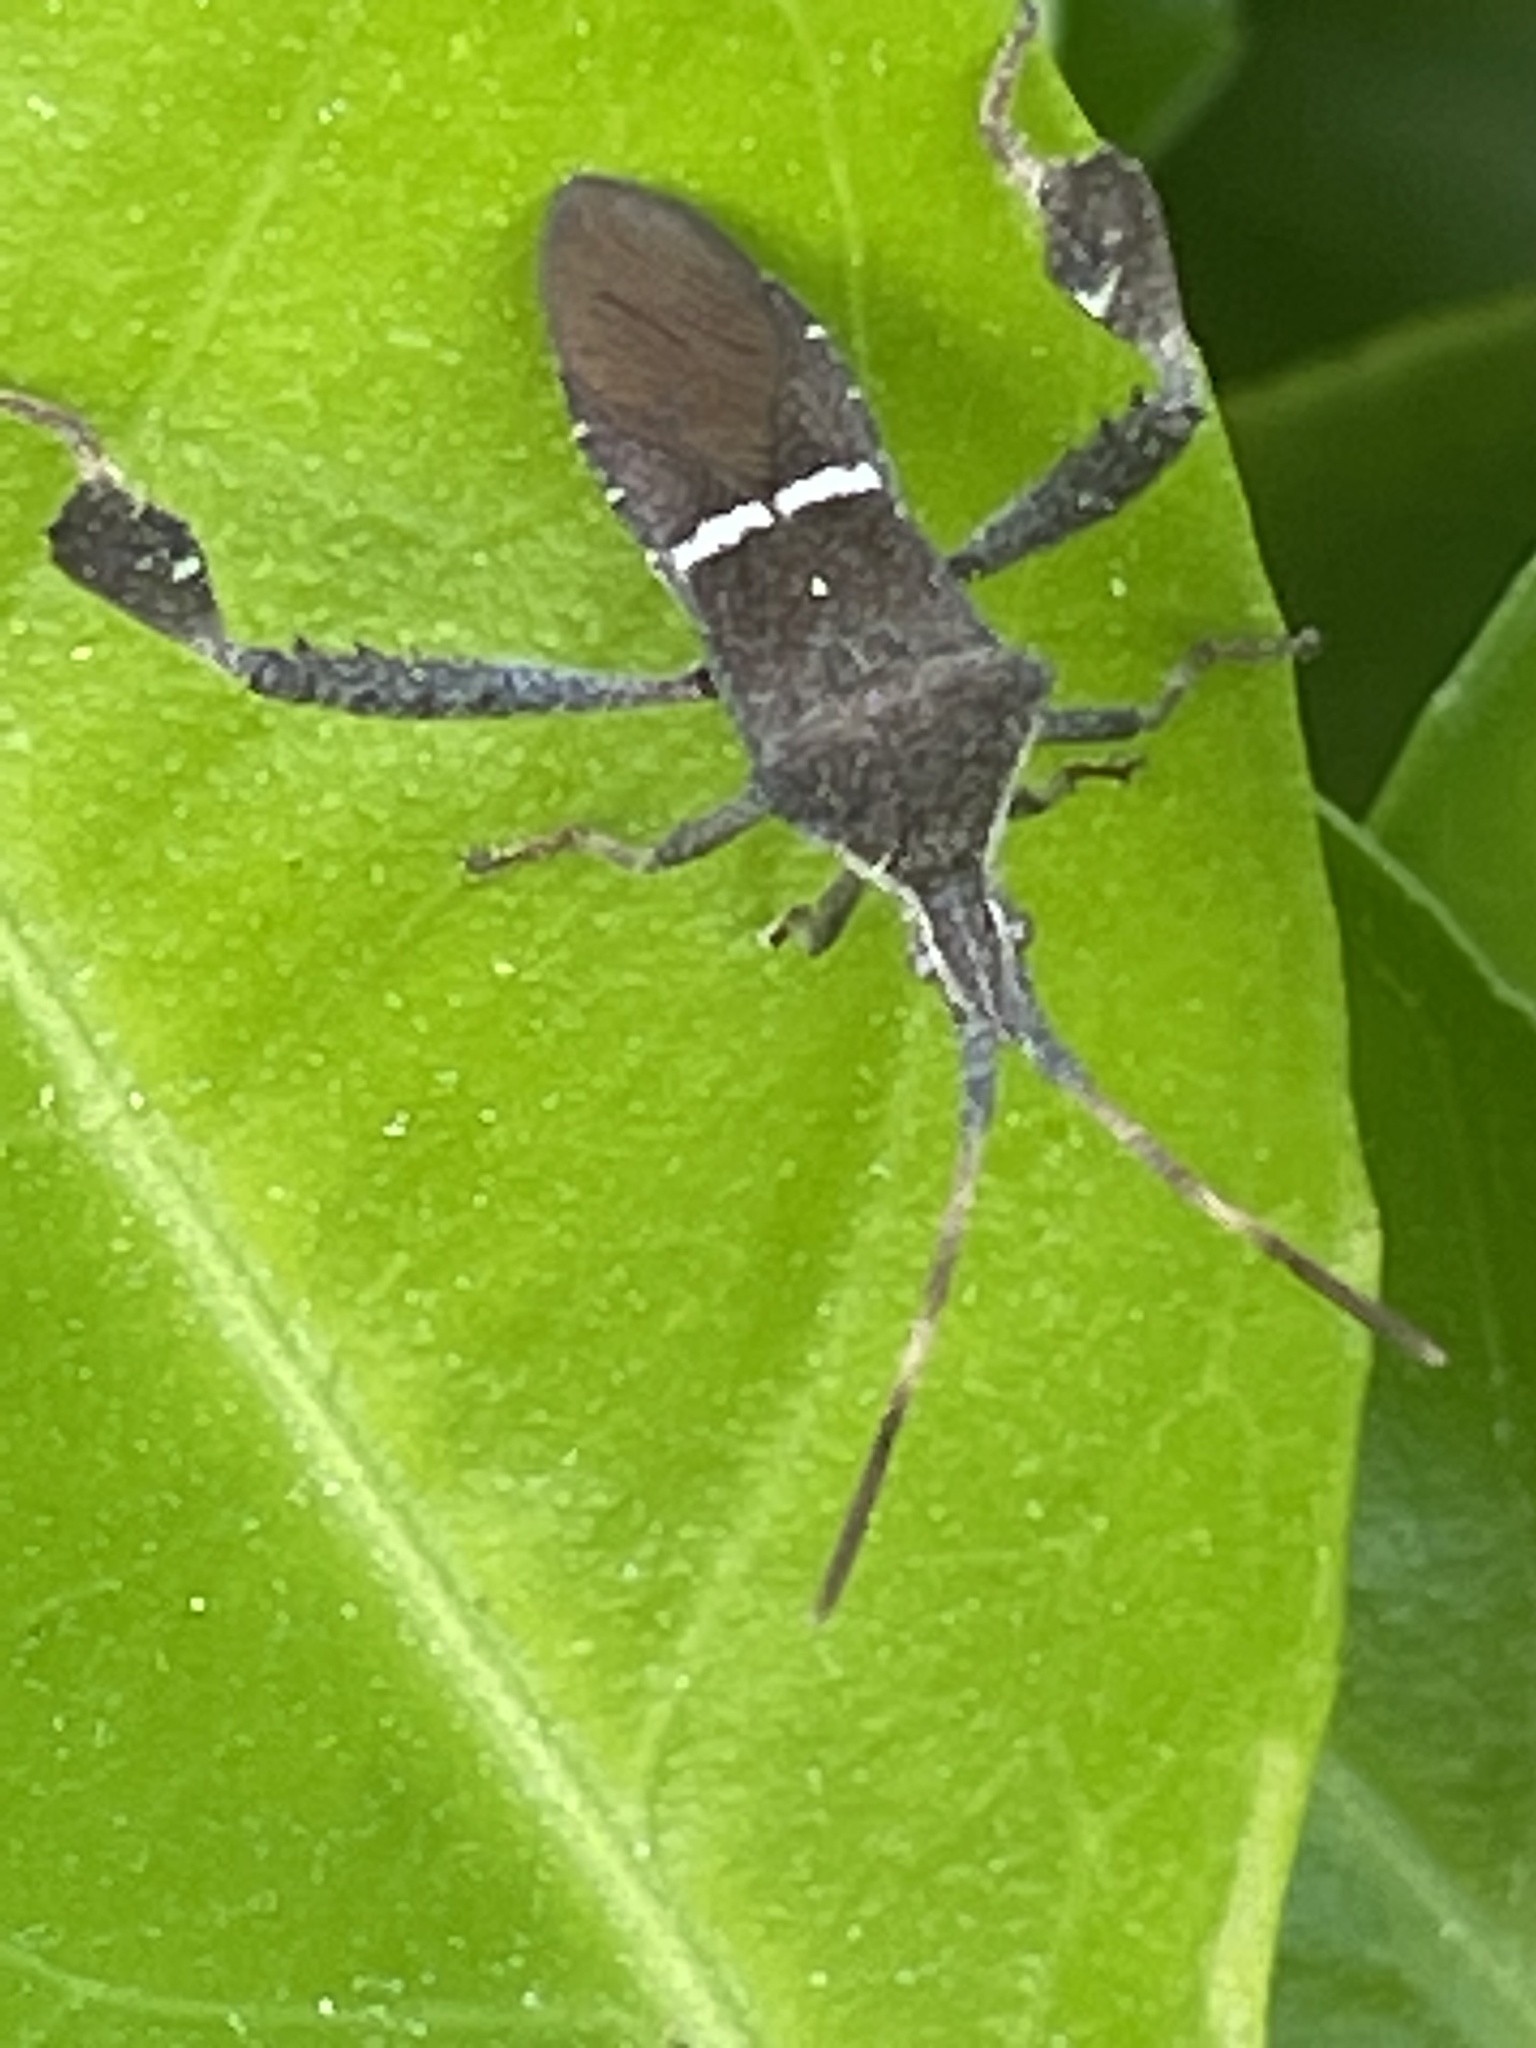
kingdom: Animalia
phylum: Arthropoda
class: Insecta
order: Hemiptera
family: Coreidae
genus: Leptoglossus
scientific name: Leptoglossus phyllopus
